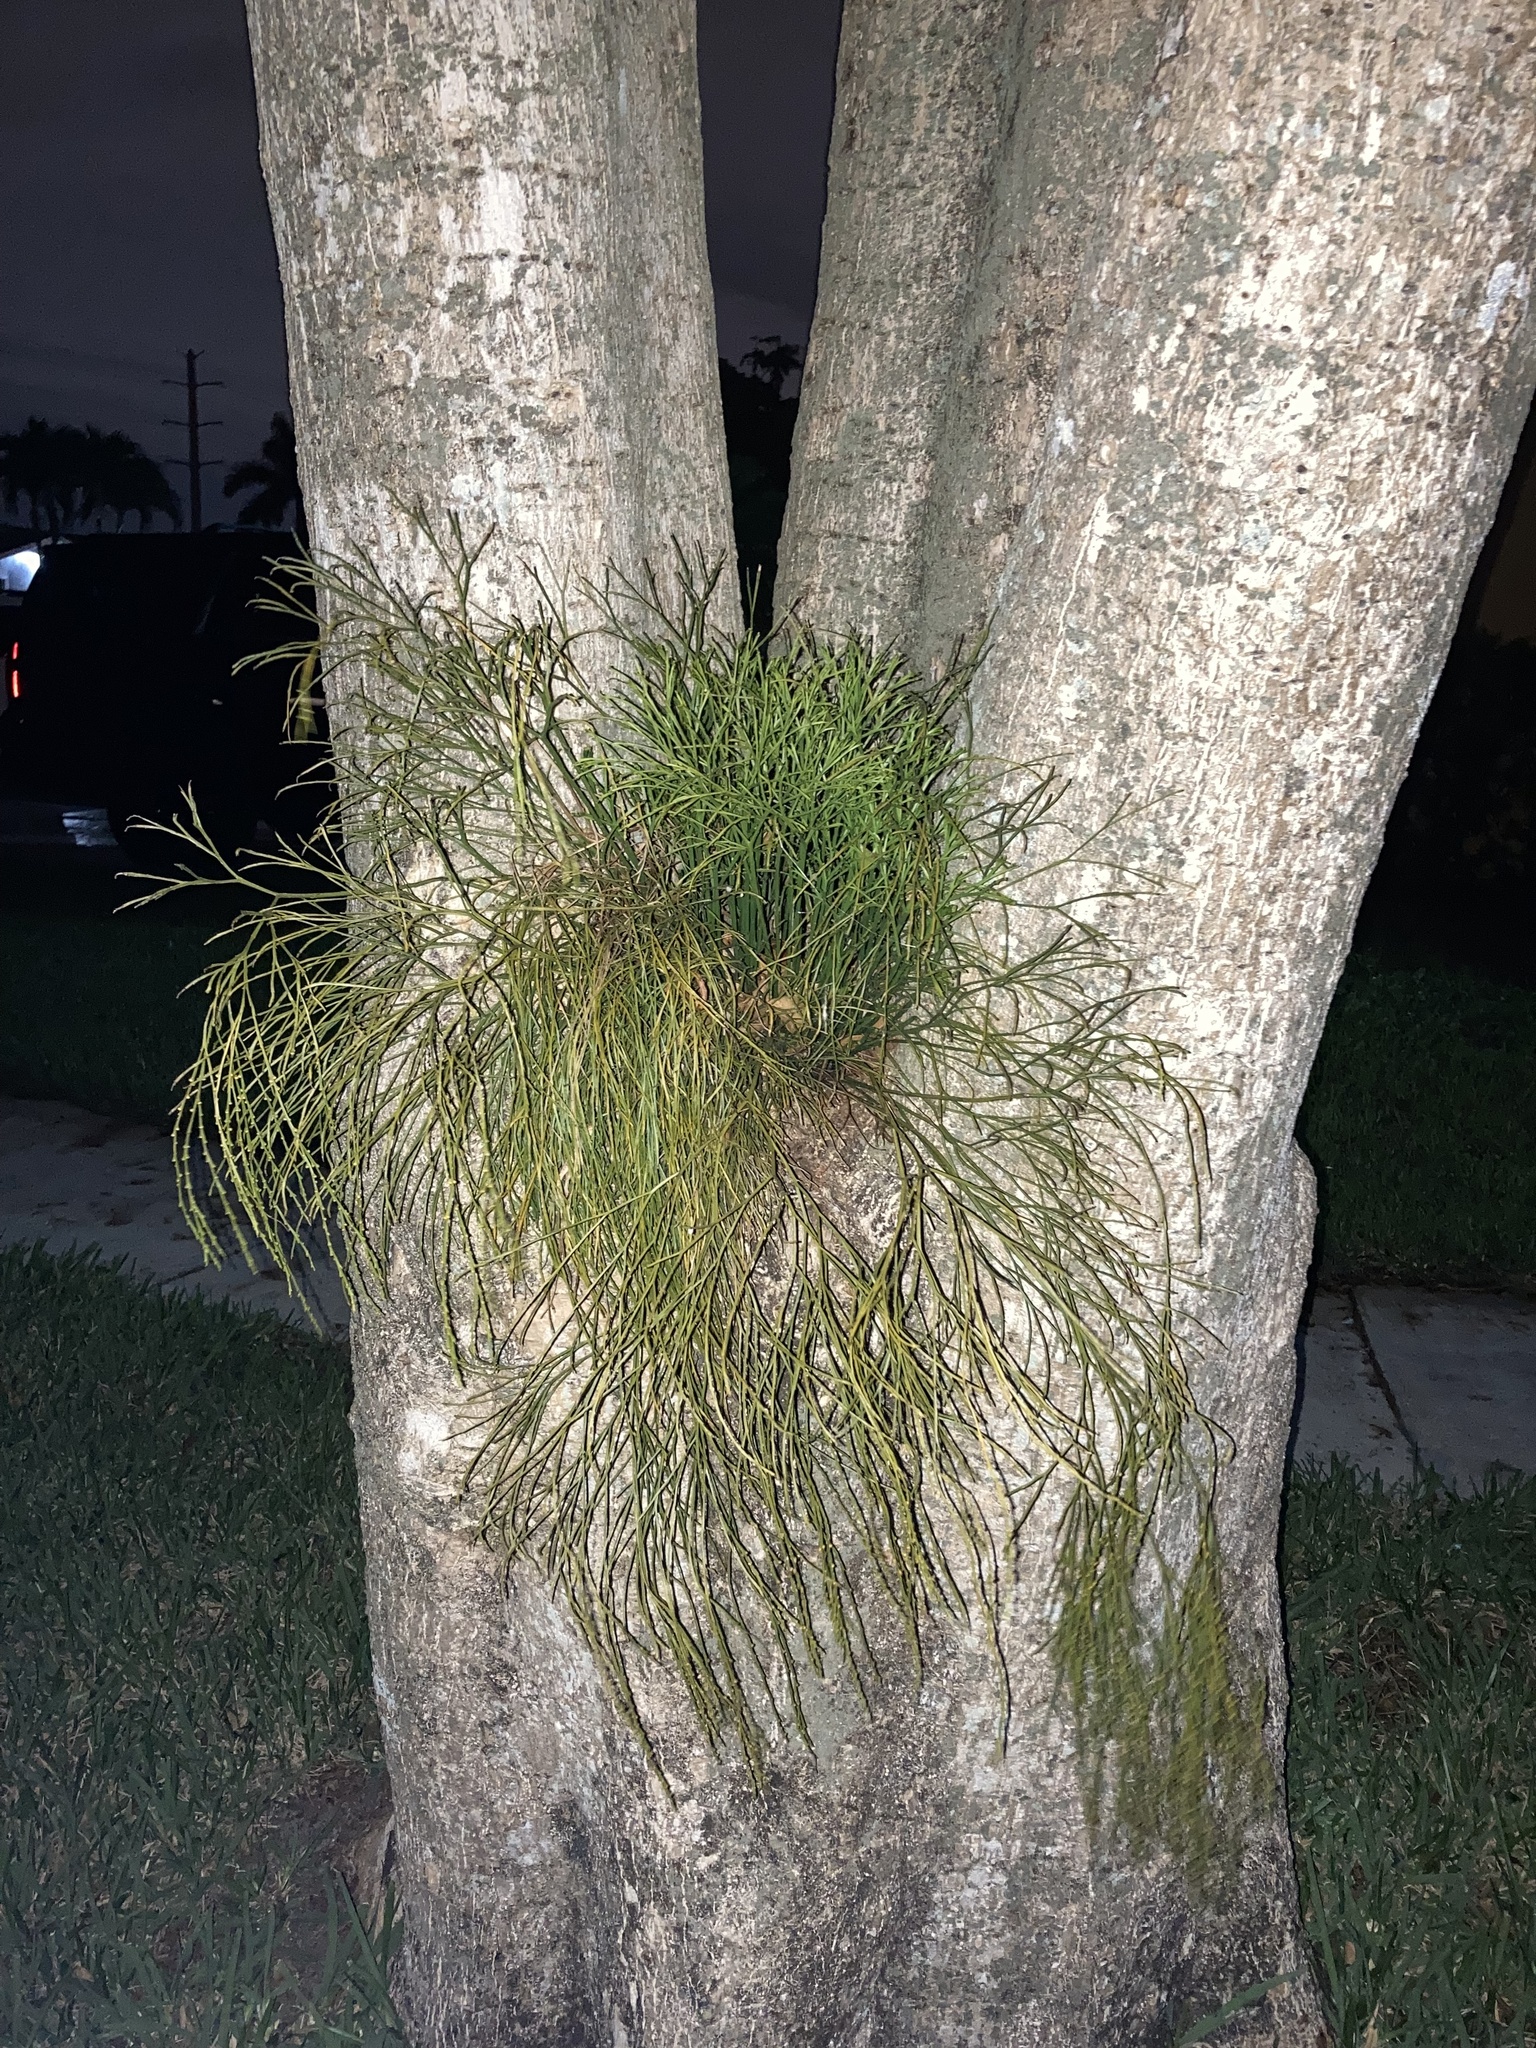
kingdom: Plantae
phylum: Tracheophyta
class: Polypodiopsida
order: Psilotales
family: Psilotaceae
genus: Psilotum
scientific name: Psilotum nudum
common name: Skeleton fork fern
